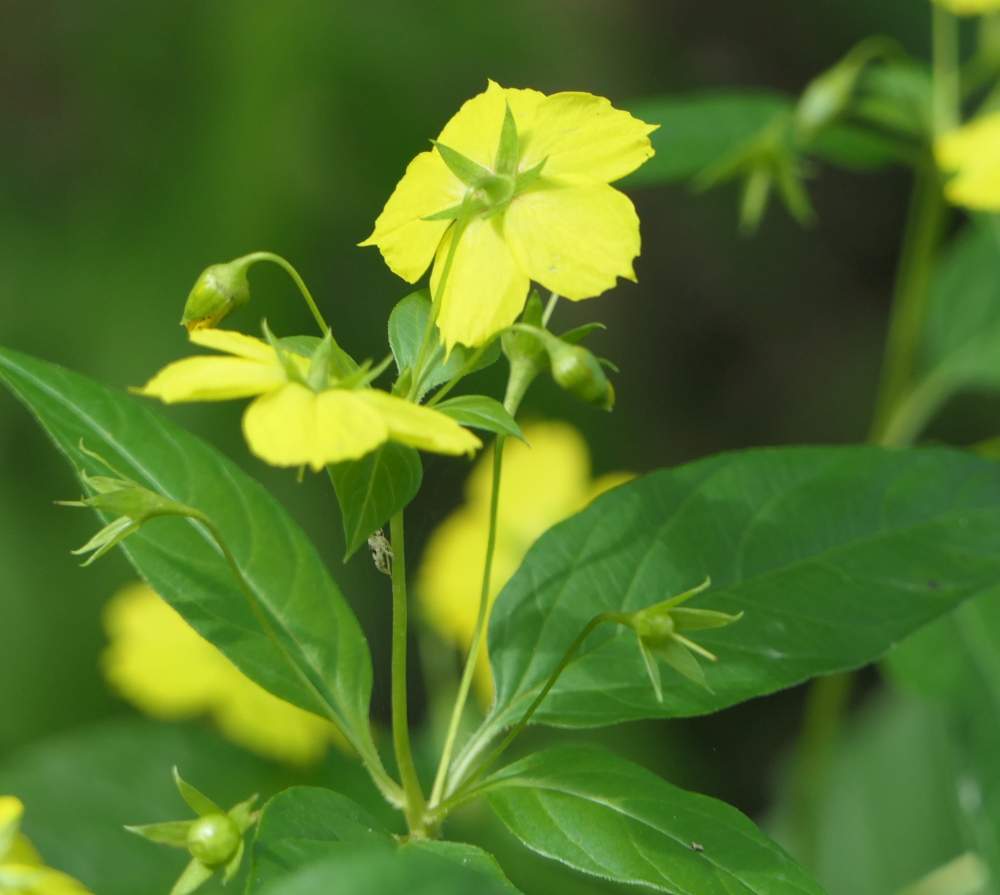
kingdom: Plantae
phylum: Tracheophyta
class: Magnoliopsida
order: Ericales
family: Primulaceae
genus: Lysimachia
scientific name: Lysimachia ciliata
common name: Fringed loosestrife
